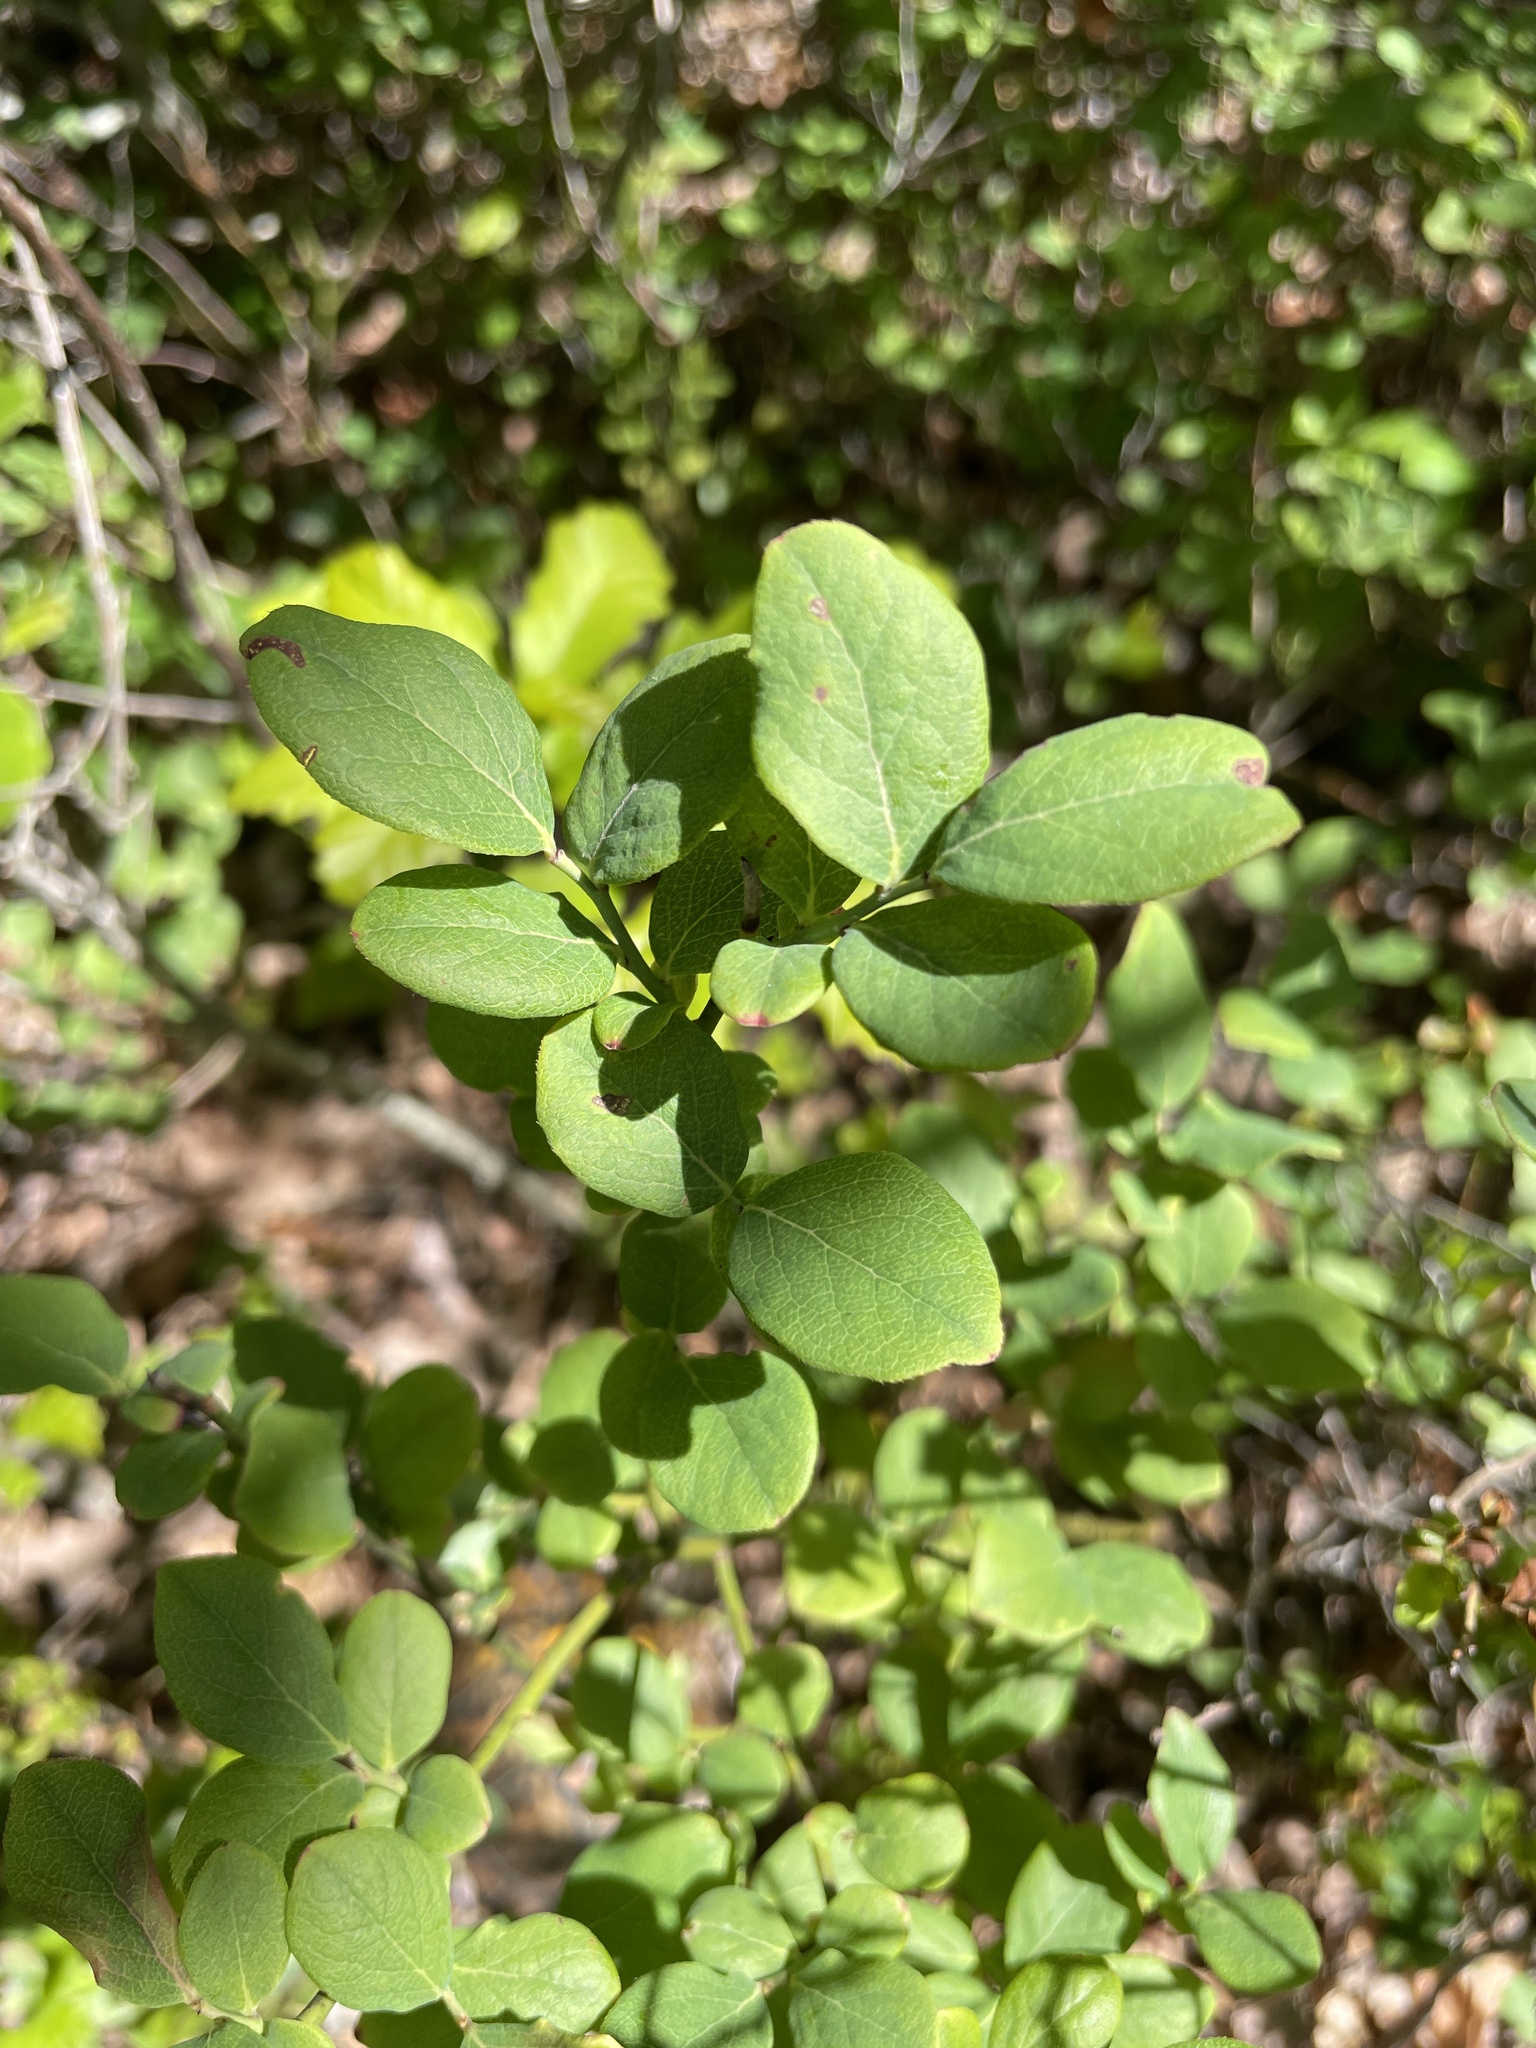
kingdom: Plantae
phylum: Tracheophyta
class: Magnoliopsida
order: Ericales
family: Ericaceae
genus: Vaccinium
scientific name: Vaccinium pallidum
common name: Blue ridge blueberry
